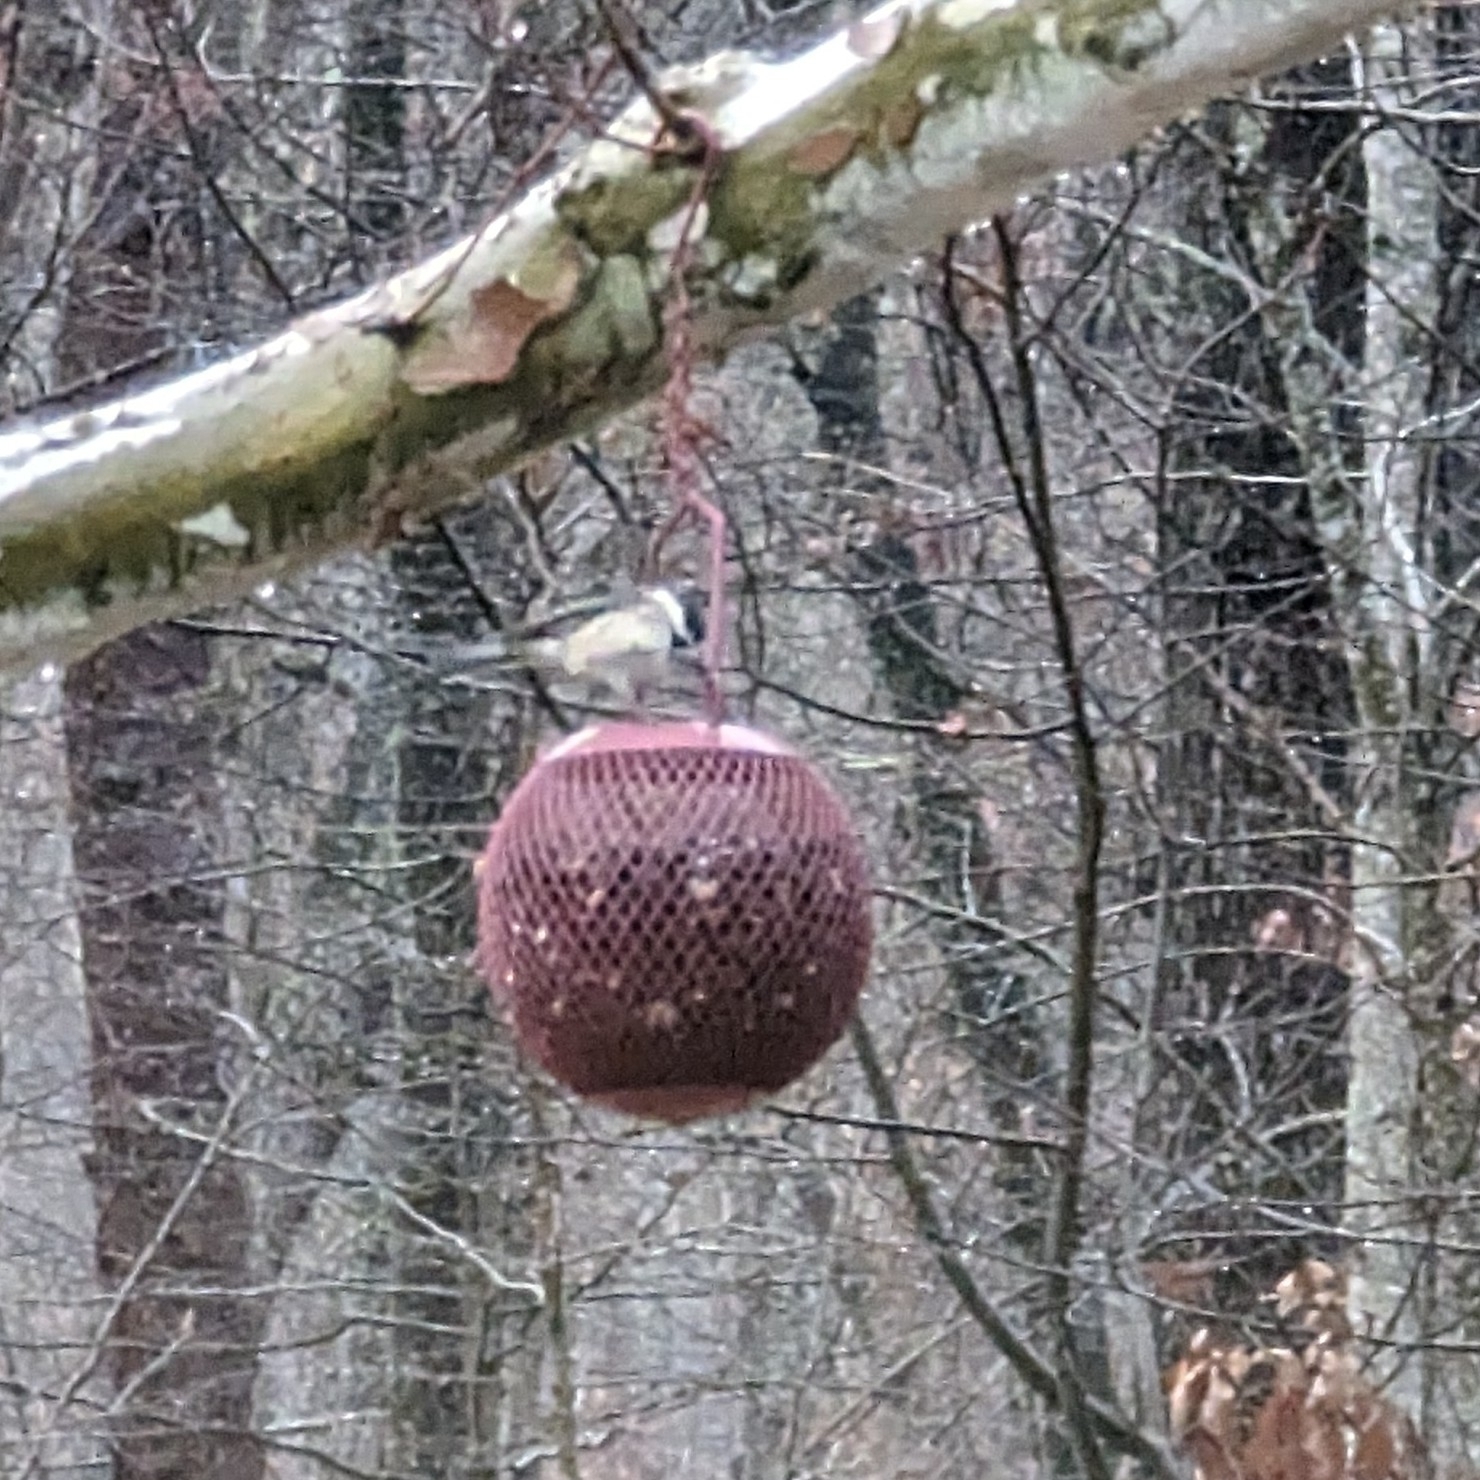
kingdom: Animalia
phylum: Chordata
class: Aves
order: Passeriformes
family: Paridae
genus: Poecile
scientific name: Poecile carolinensis
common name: Carolina chickadee
